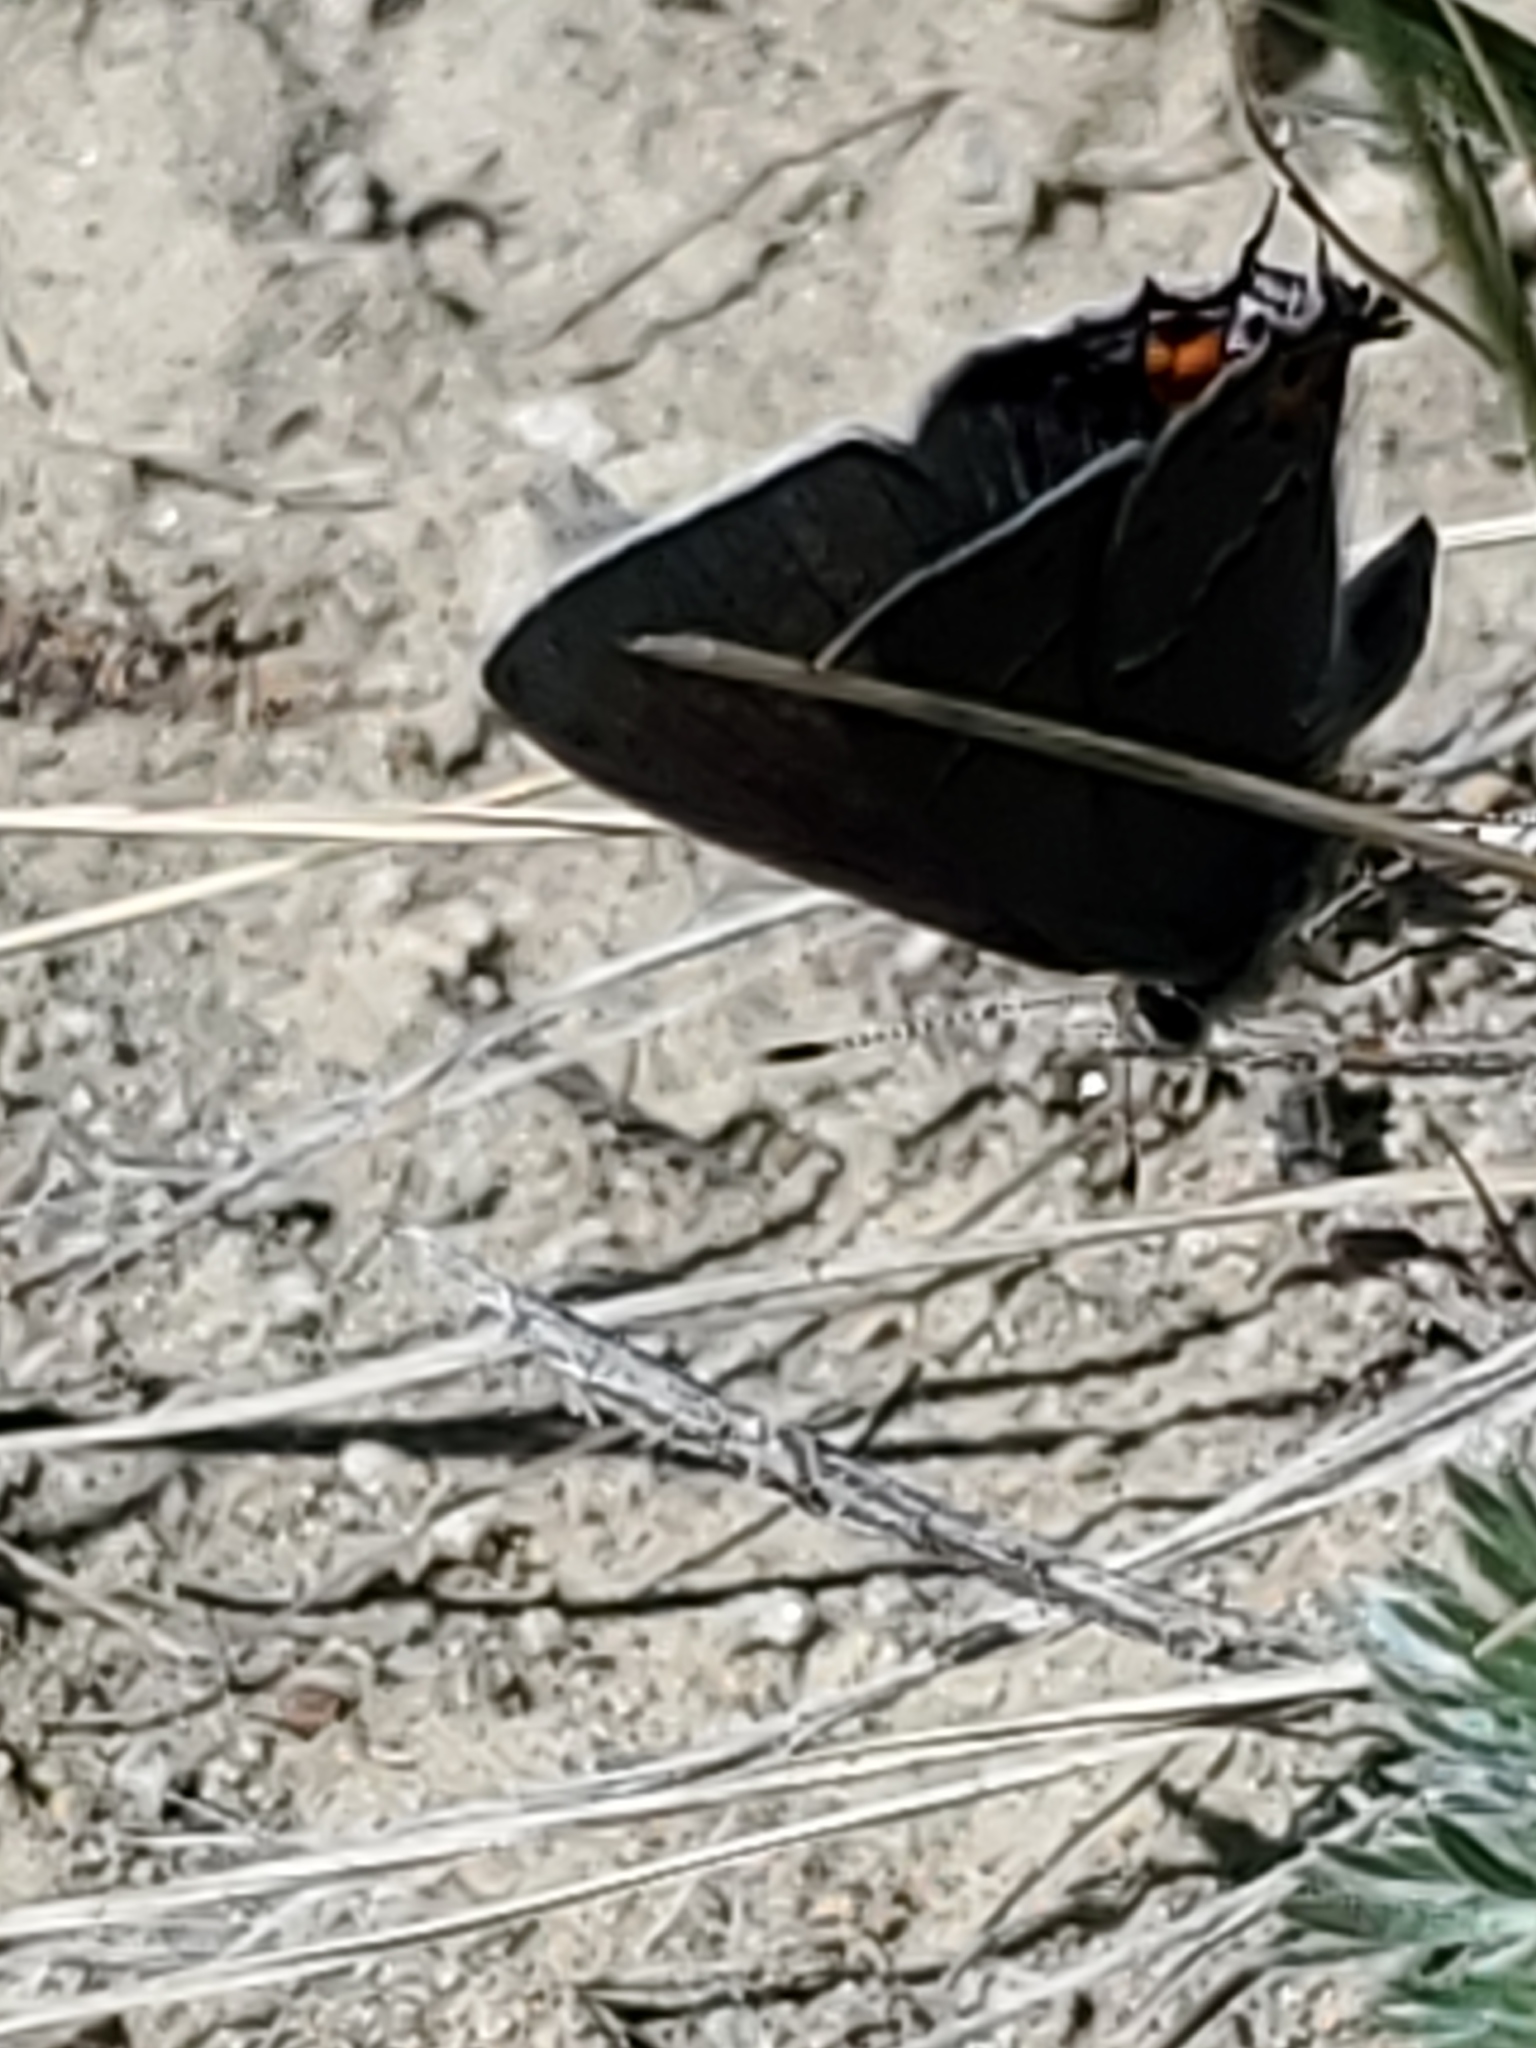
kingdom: Animalia
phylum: Arthropoda
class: Insecta
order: Lepidoptera
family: Lycaenidae
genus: Strymon
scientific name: Strymon melinus
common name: Gray hairstreak
